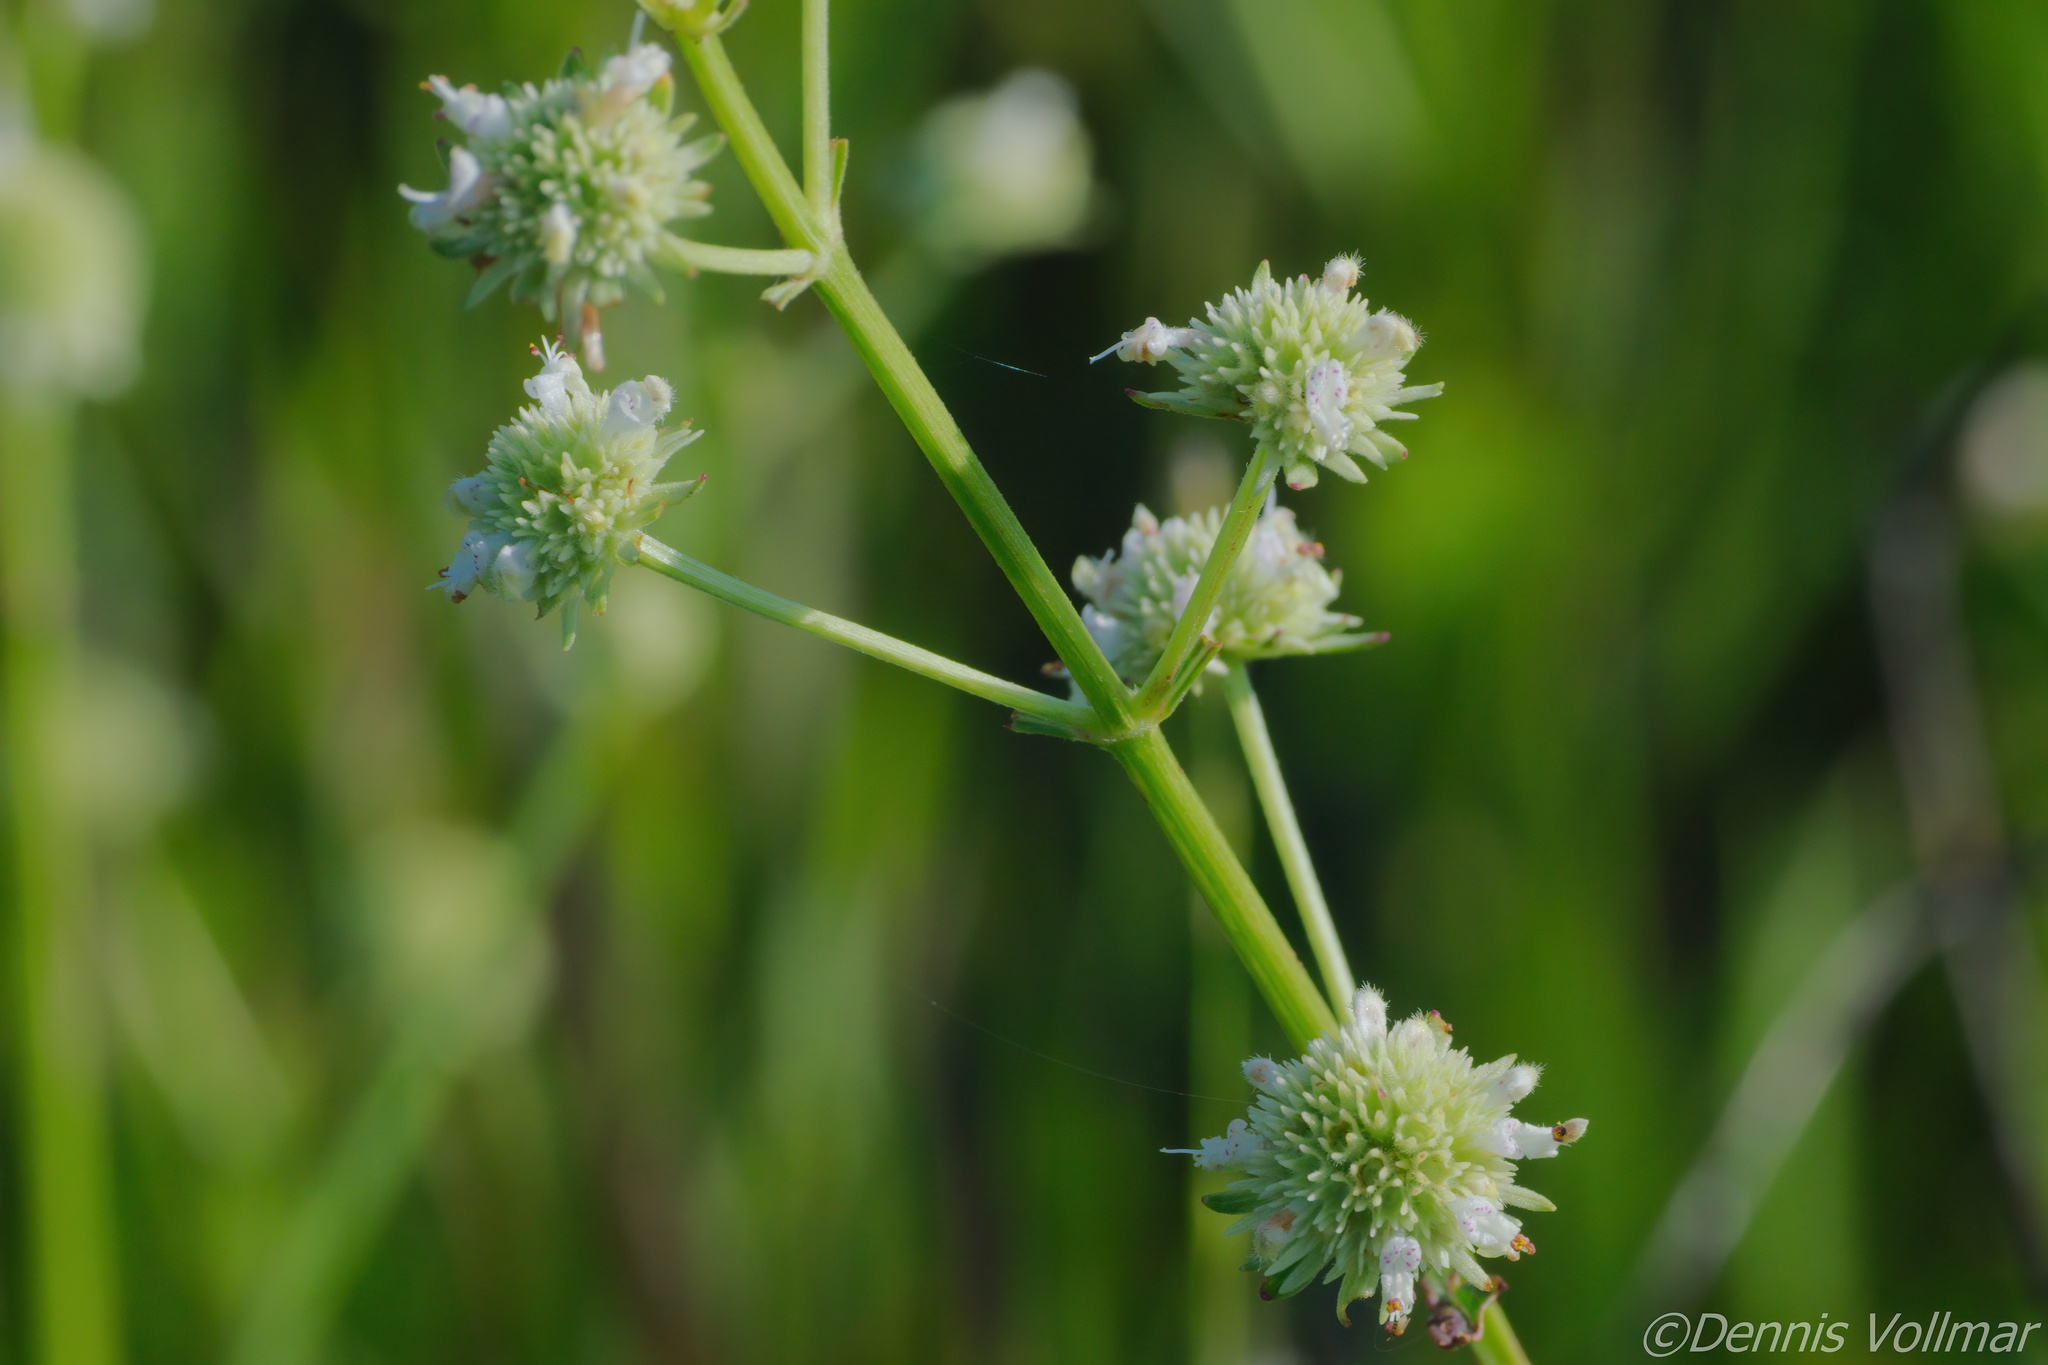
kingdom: Plantae
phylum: Tracheophyta
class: Magnoliopsida
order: Lamiales
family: Lamiaceae
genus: Hyptis
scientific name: Hyptis alata
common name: Cluster bush-mint
